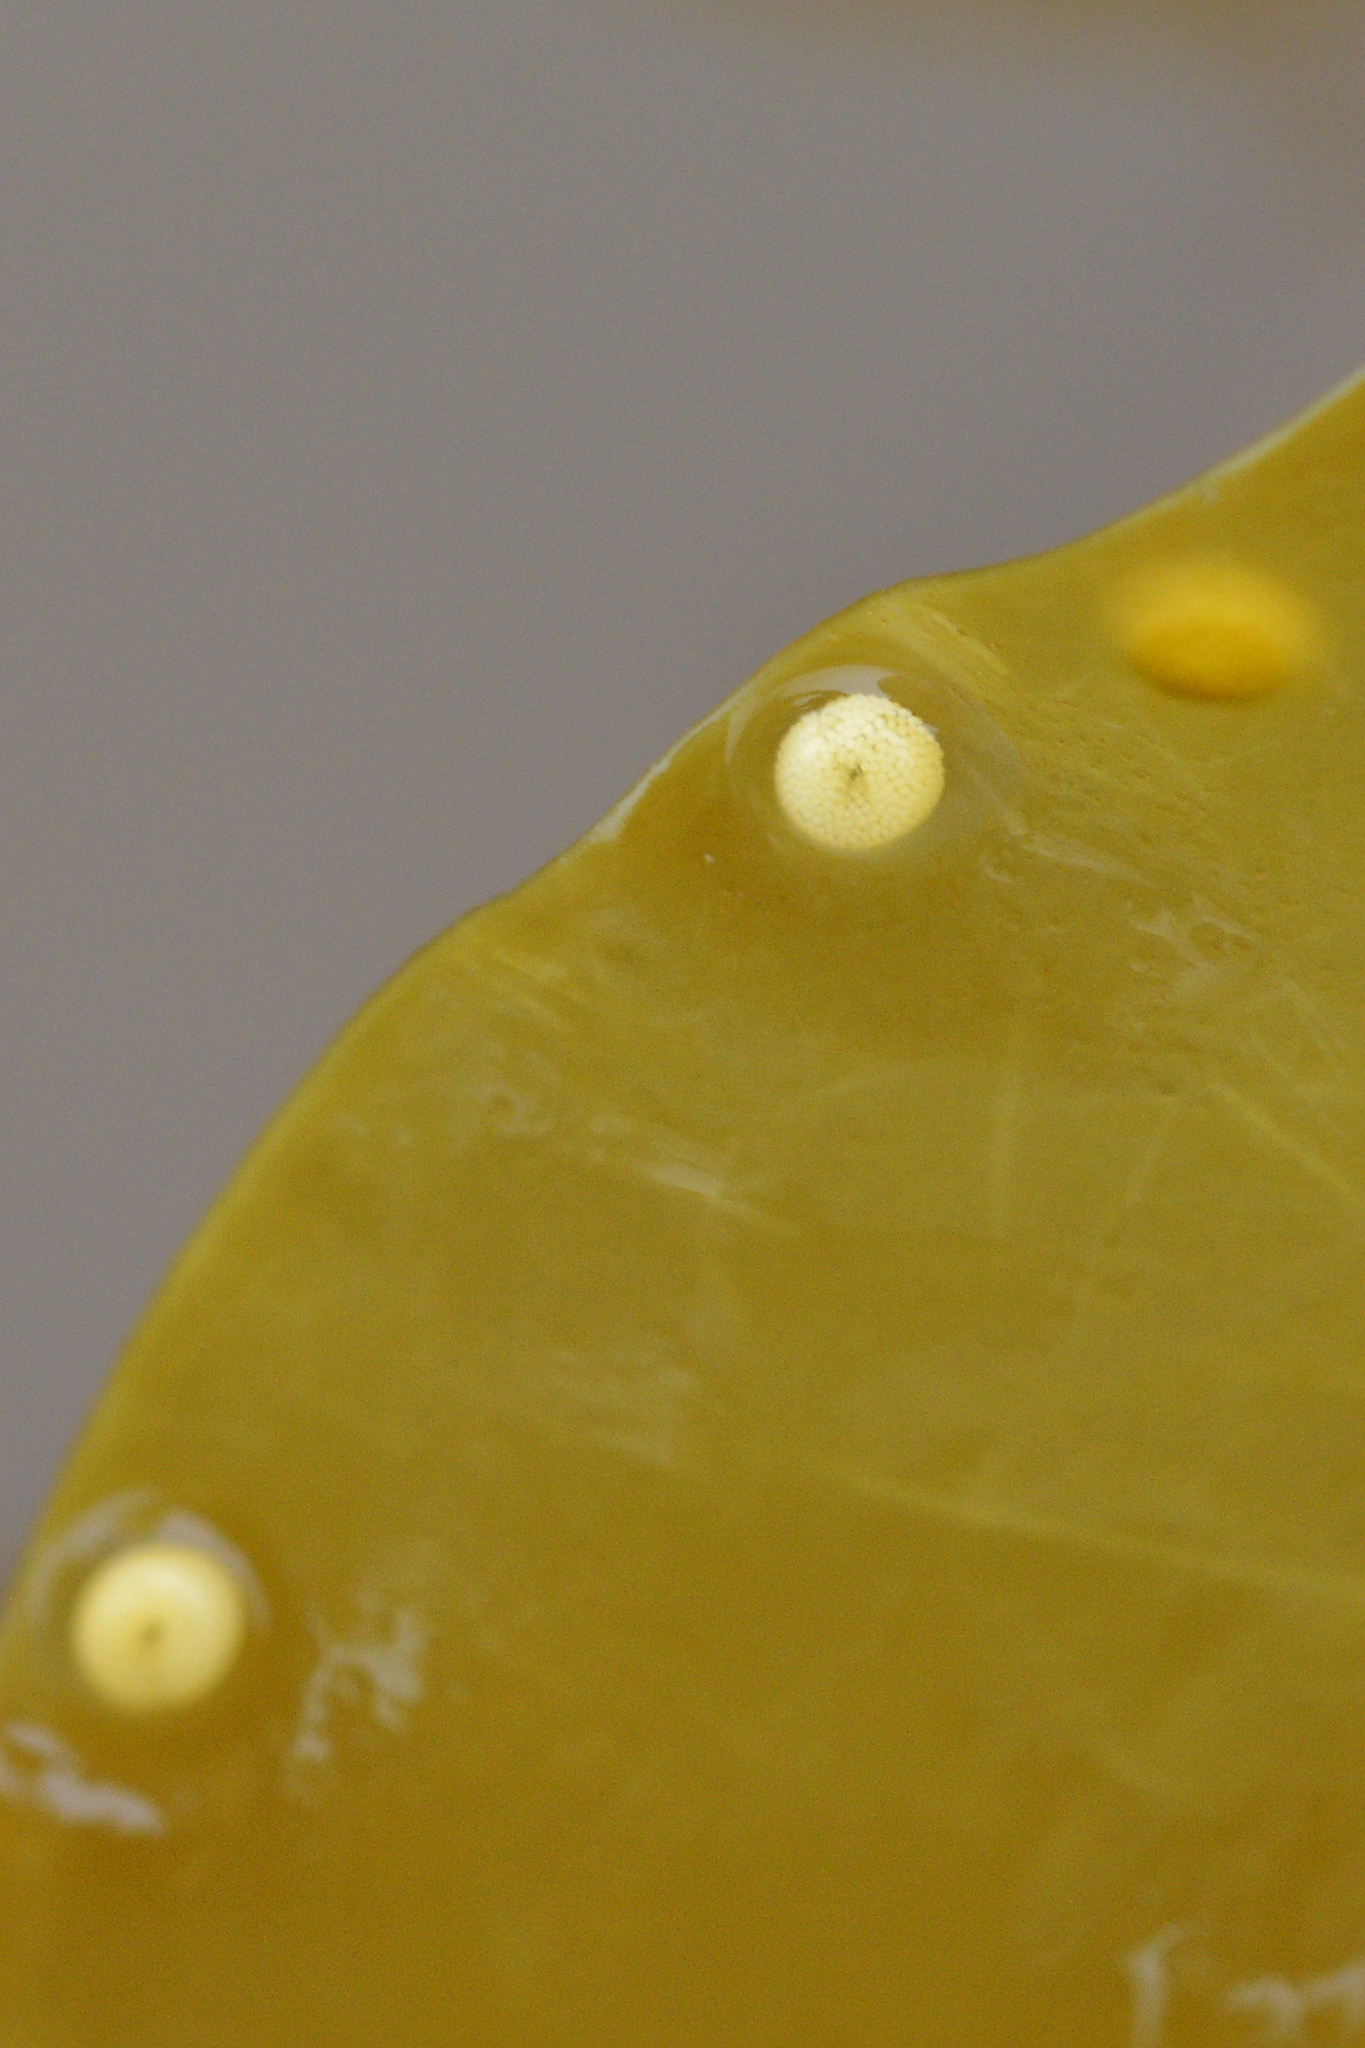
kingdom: Animalia
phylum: Mollusca
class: Gastropoda
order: Littorinimorpha
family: Littorinidae
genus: Lacuna
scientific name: Lacuna vincta
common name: Banded chink shell
